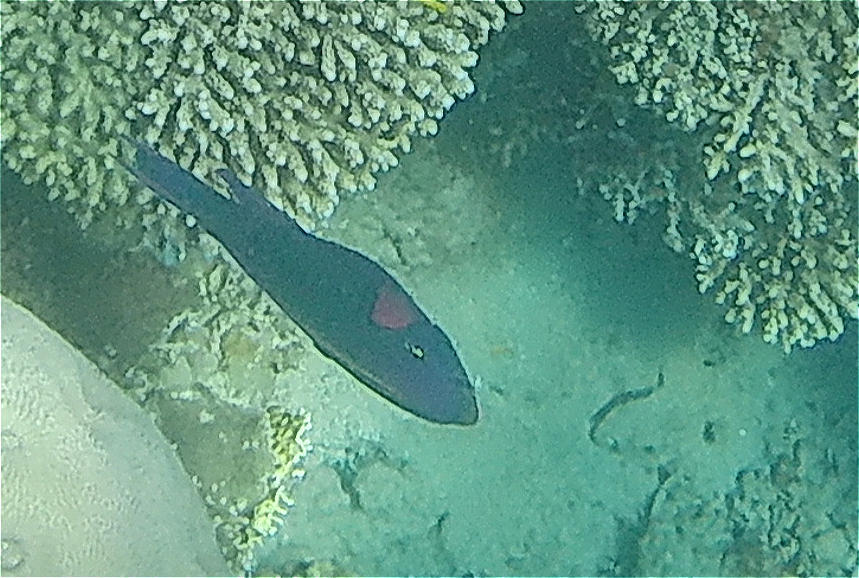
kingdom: Animalia
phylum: Chordata
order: Perciformes
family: Scaridae
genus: Scarus
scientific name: Scarus niger
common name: Dusky parrotfish
